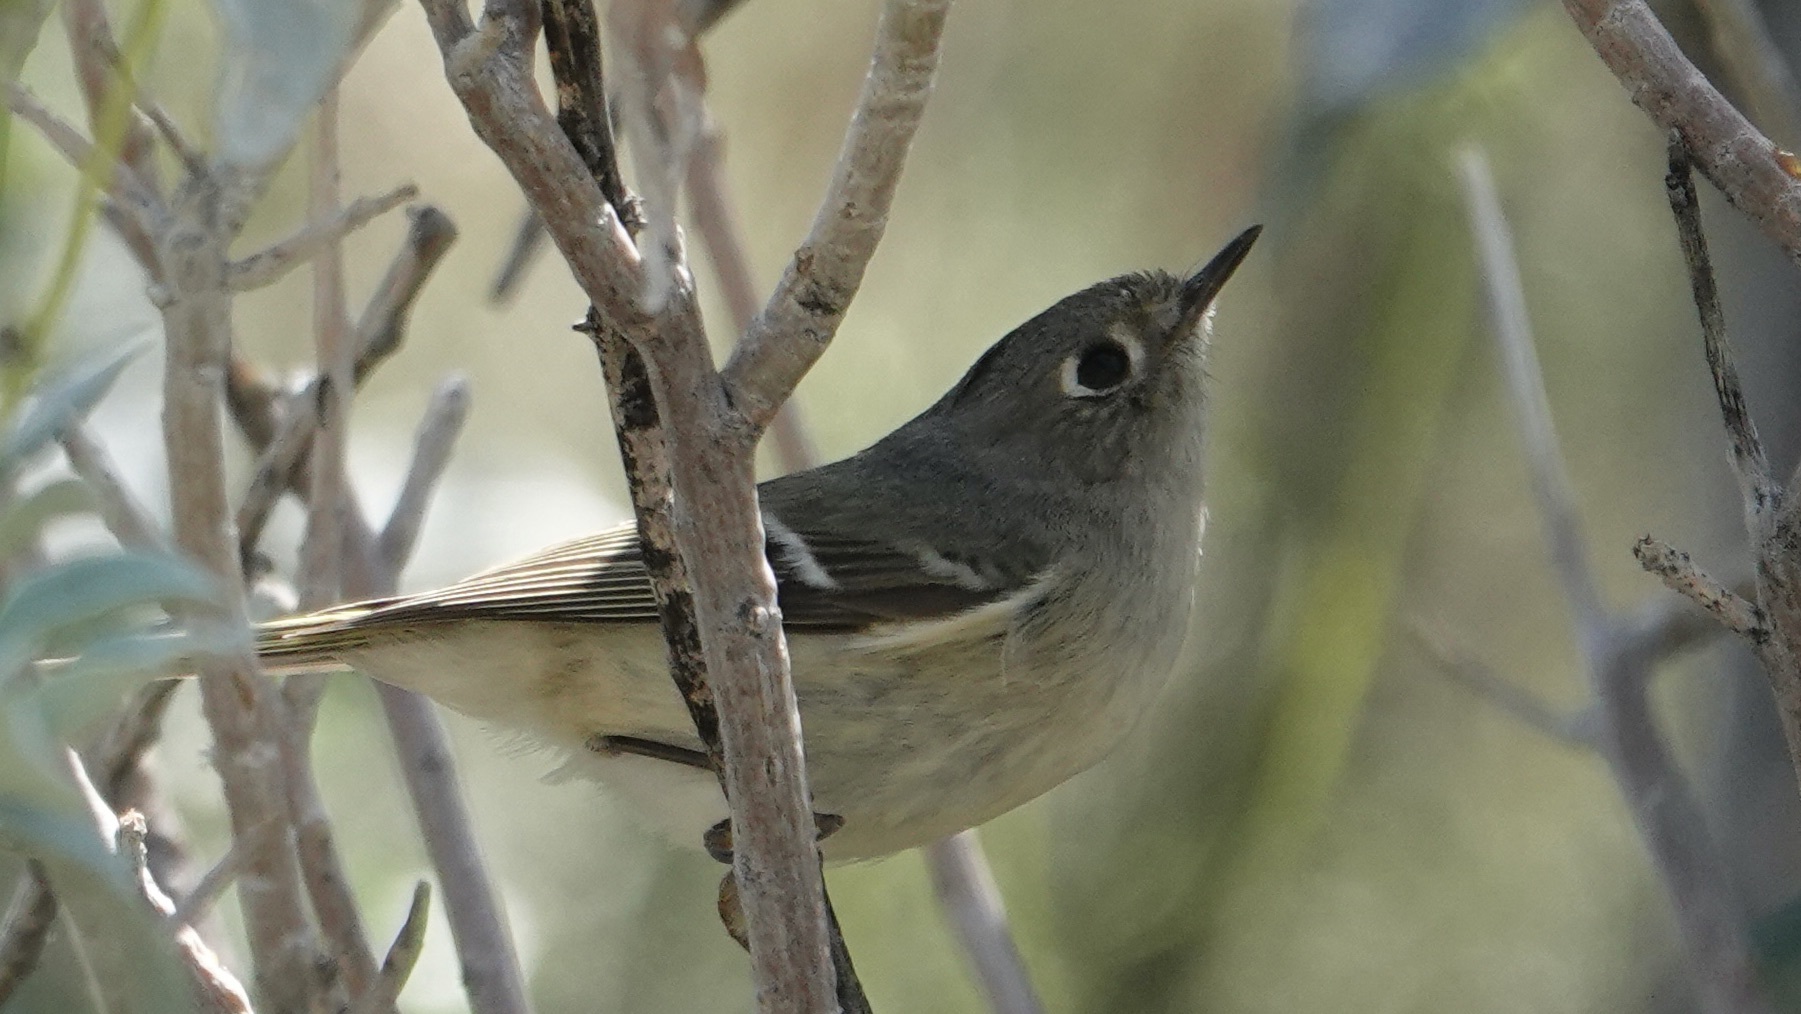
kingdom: Animalia
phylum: Chordata
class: Aves
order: Passeriformes
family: Regulidae
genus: Regulus
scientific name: Regulus calendula
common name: Ruby-crowned kinglet
